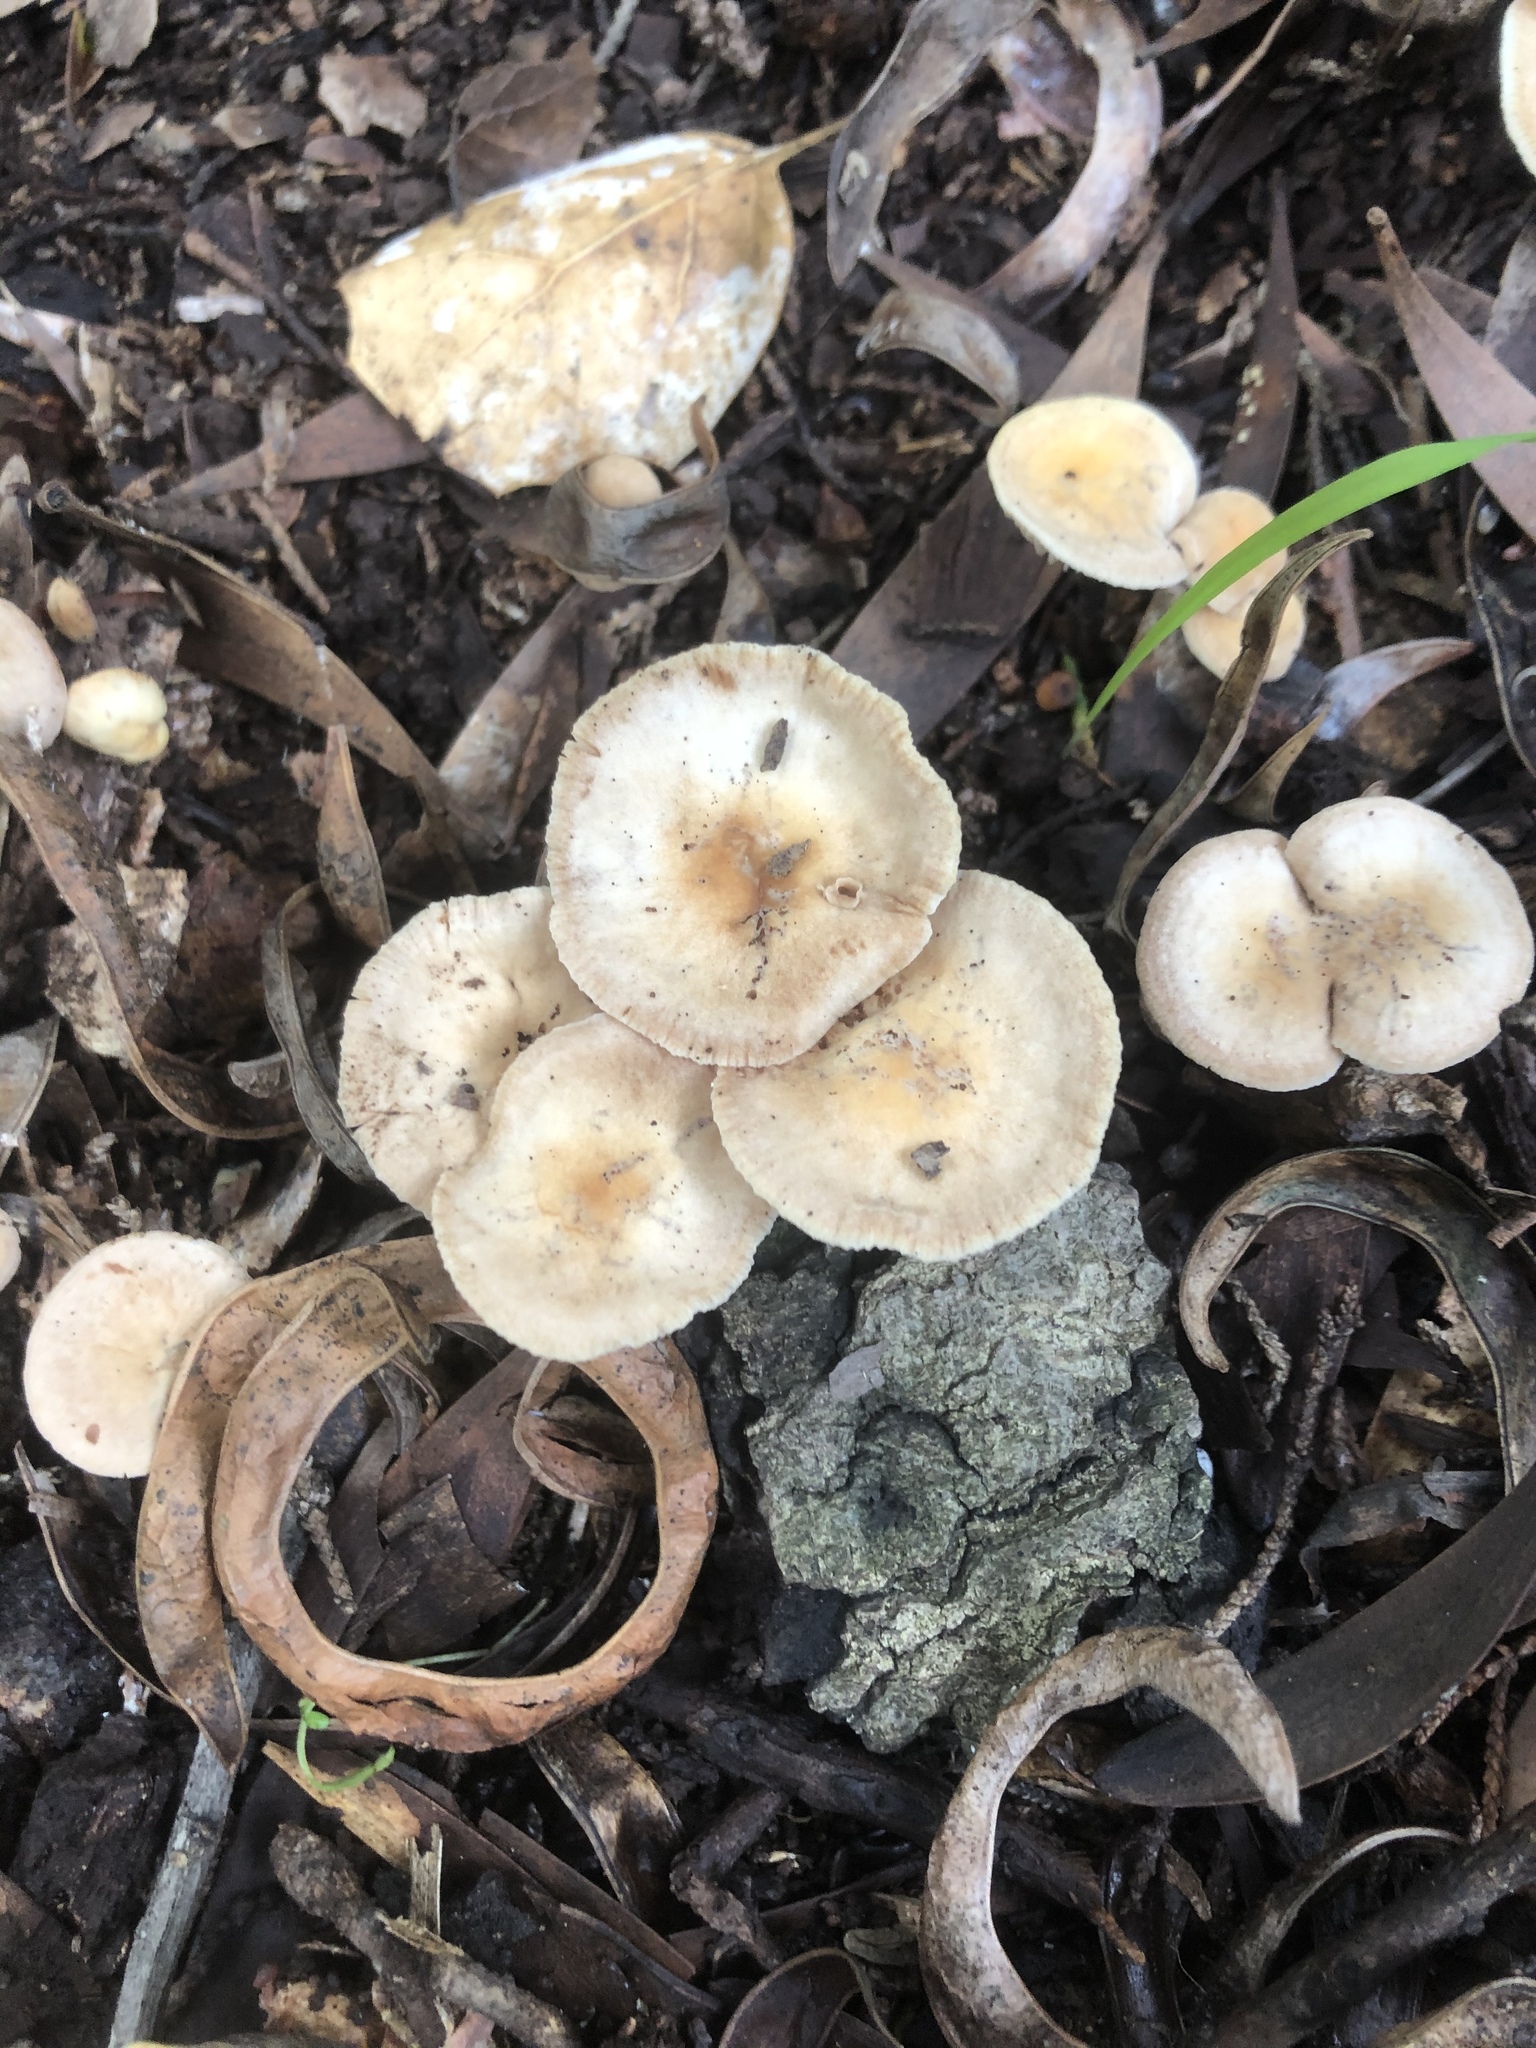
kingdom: Fungi
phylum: Basidiomycota
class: Agaricomycetes
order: Agaricales
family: Omphalotaceae
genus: Gymnopus
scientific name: Gymnopus brassicolens
